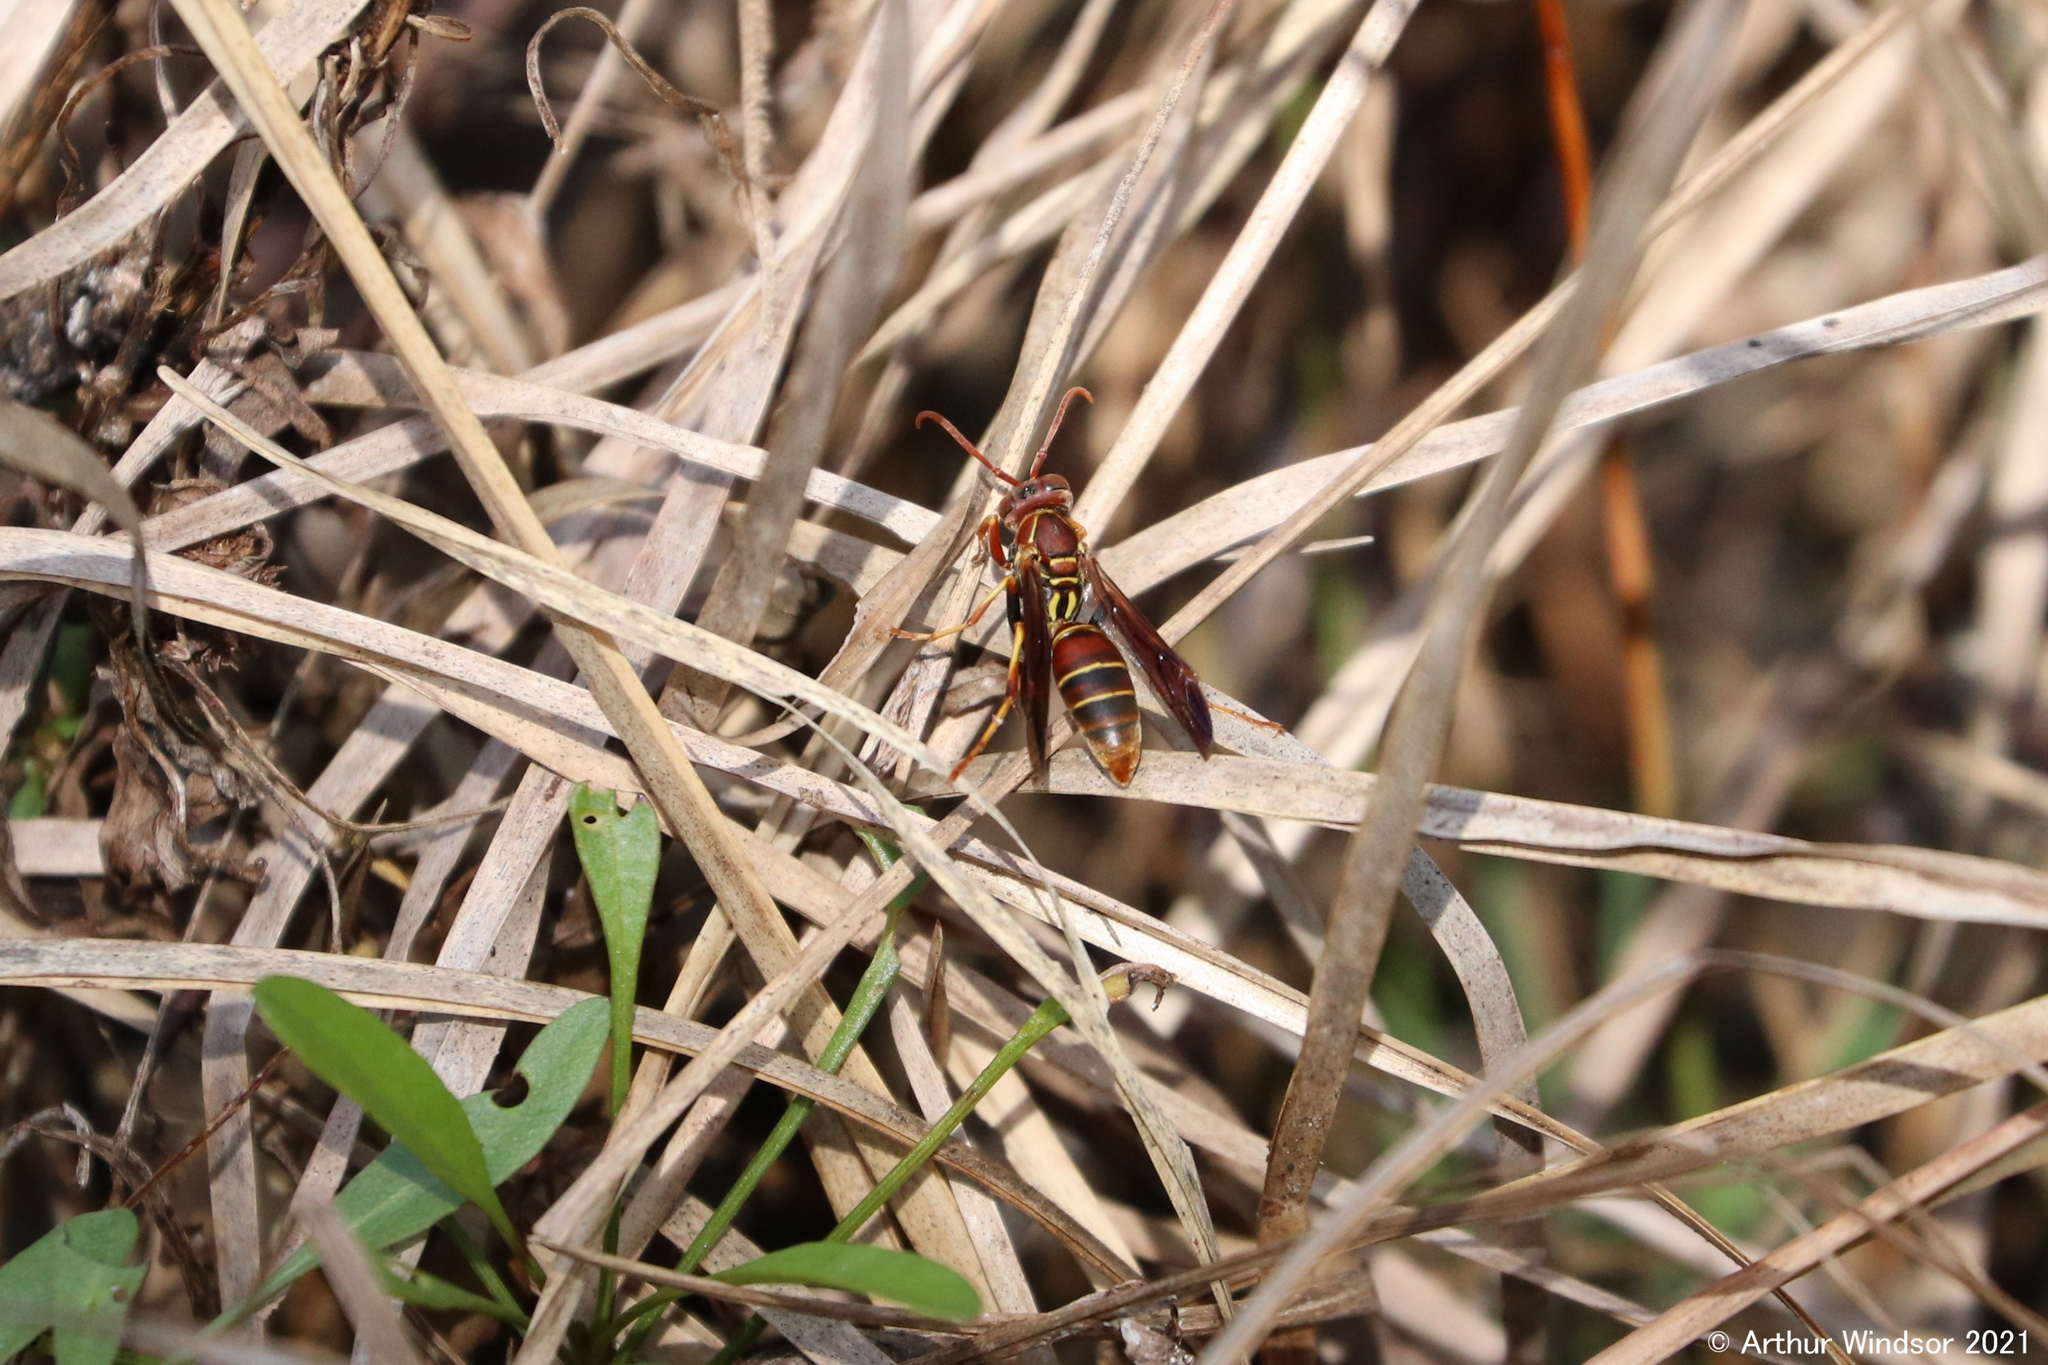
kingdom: Animalia
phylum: Arthropoda
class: Insecta
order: Hymenoptera
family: Eumenidae
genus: Polistes
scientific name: Polistes dorsalis
